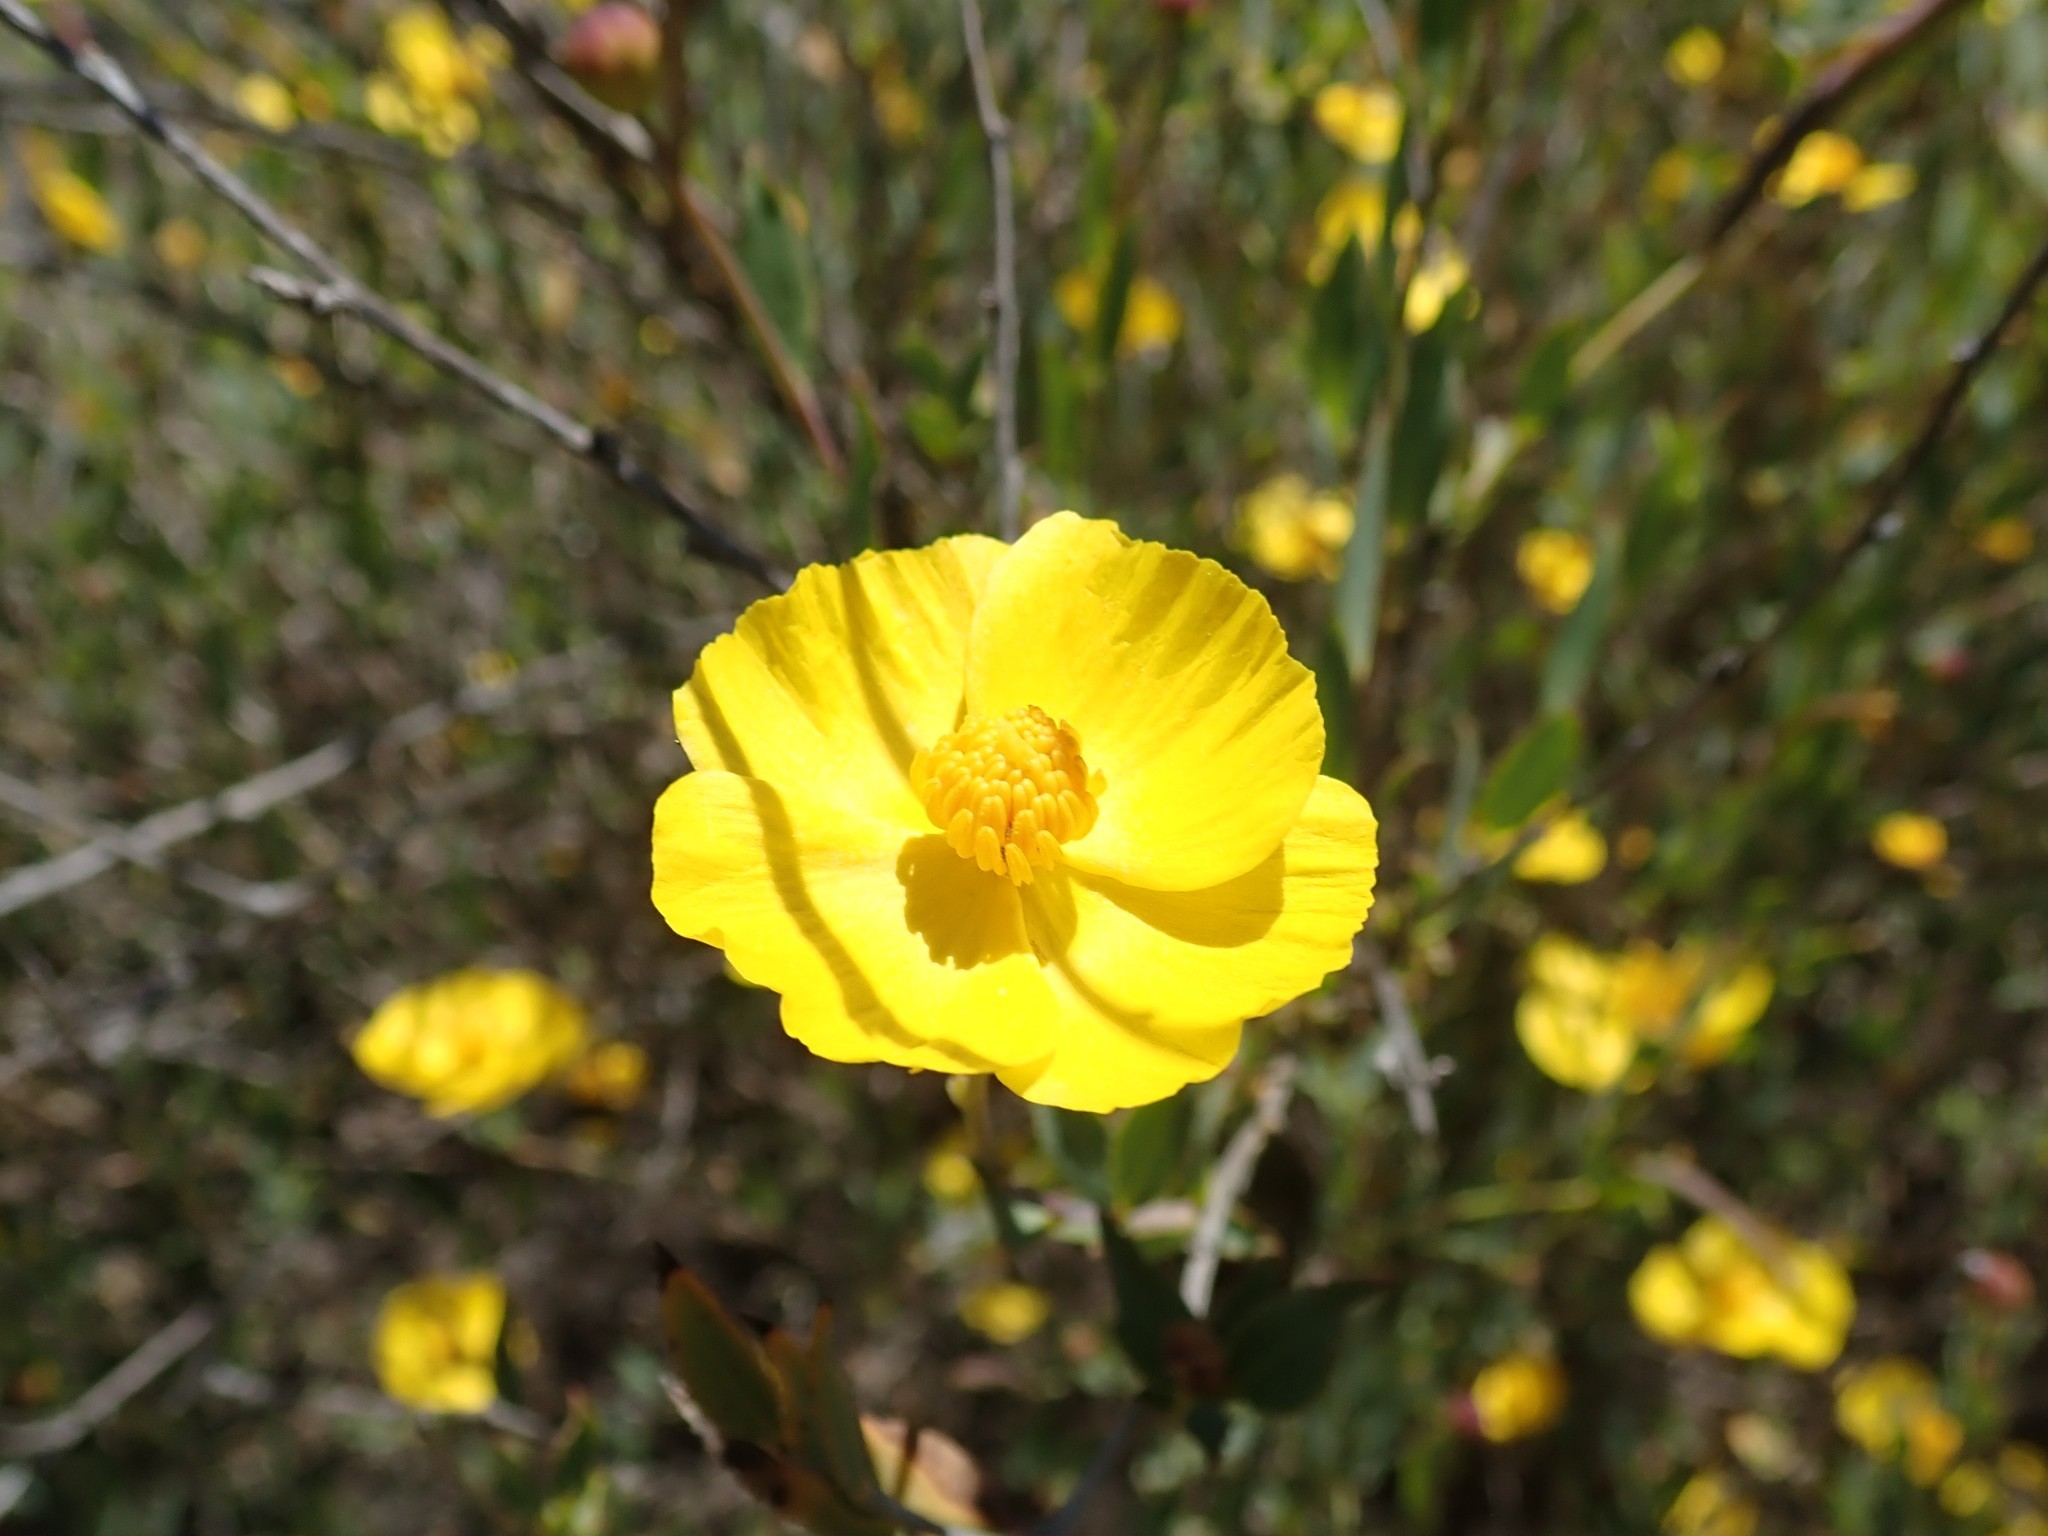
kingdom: Plantae
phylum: Tracheophyta
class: Magnoliopsida
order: Ranunculales
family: Papaveraceae
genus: Dendromecon
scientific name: Dendromecon rigida
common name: Tree poppy
